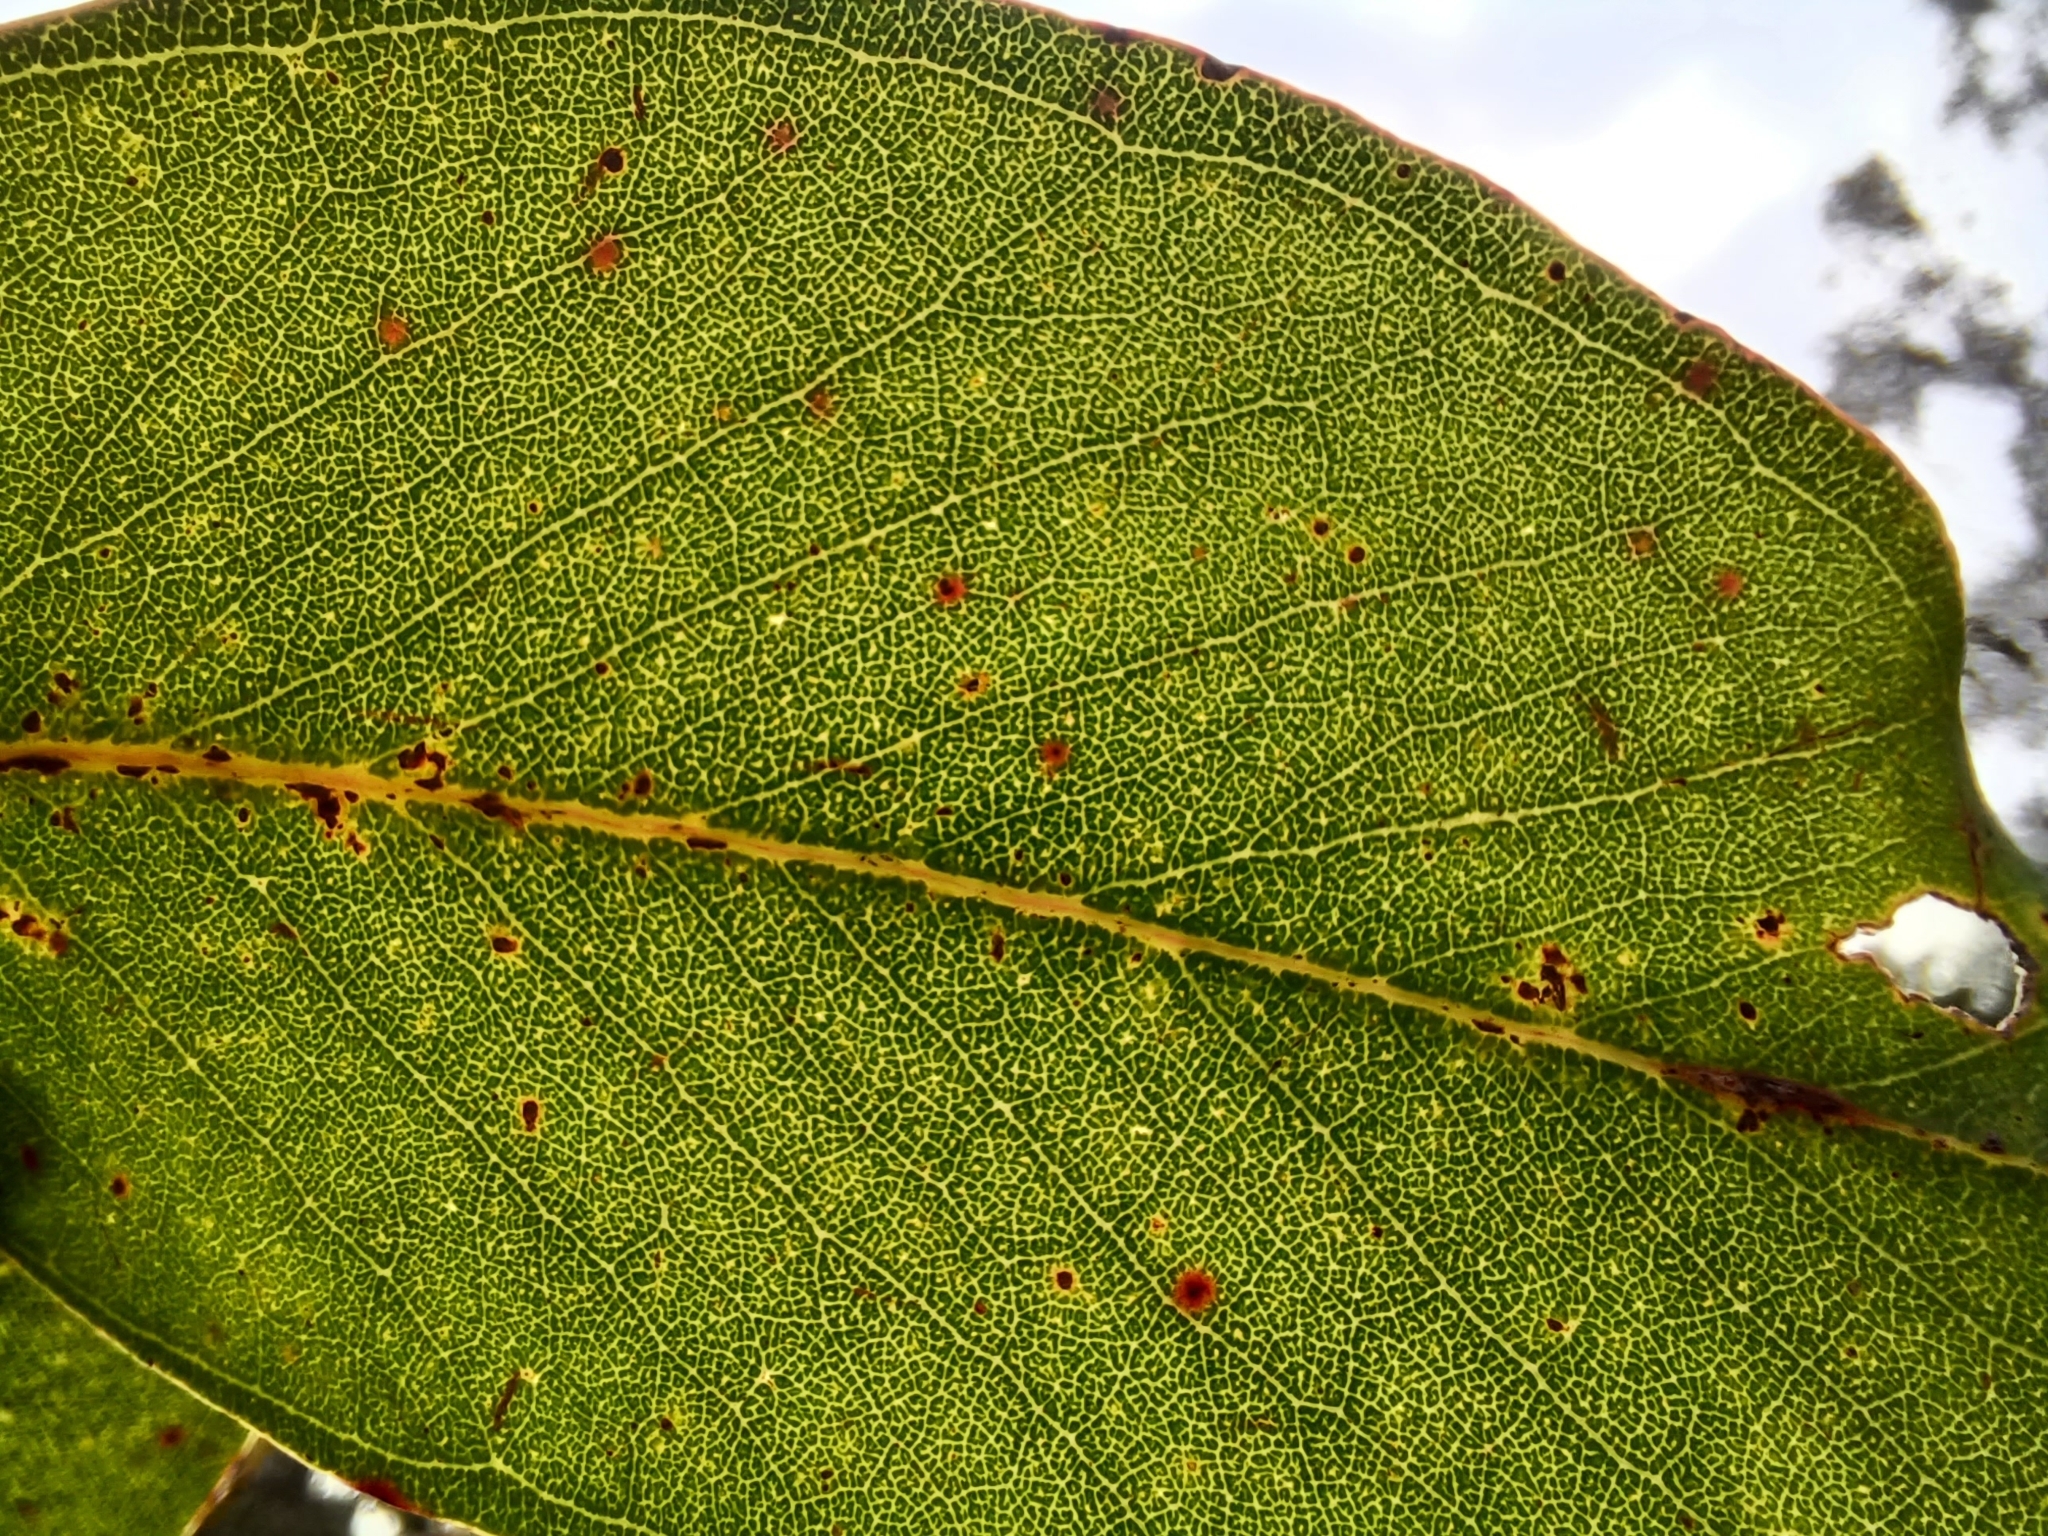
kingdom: Plantae
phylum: Tracheophyta
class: Magnoliopsida
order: Myrtales
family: Myrtaceae
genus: Eucalyptus
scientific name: Eucalyptus ovata
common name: Black-gum
